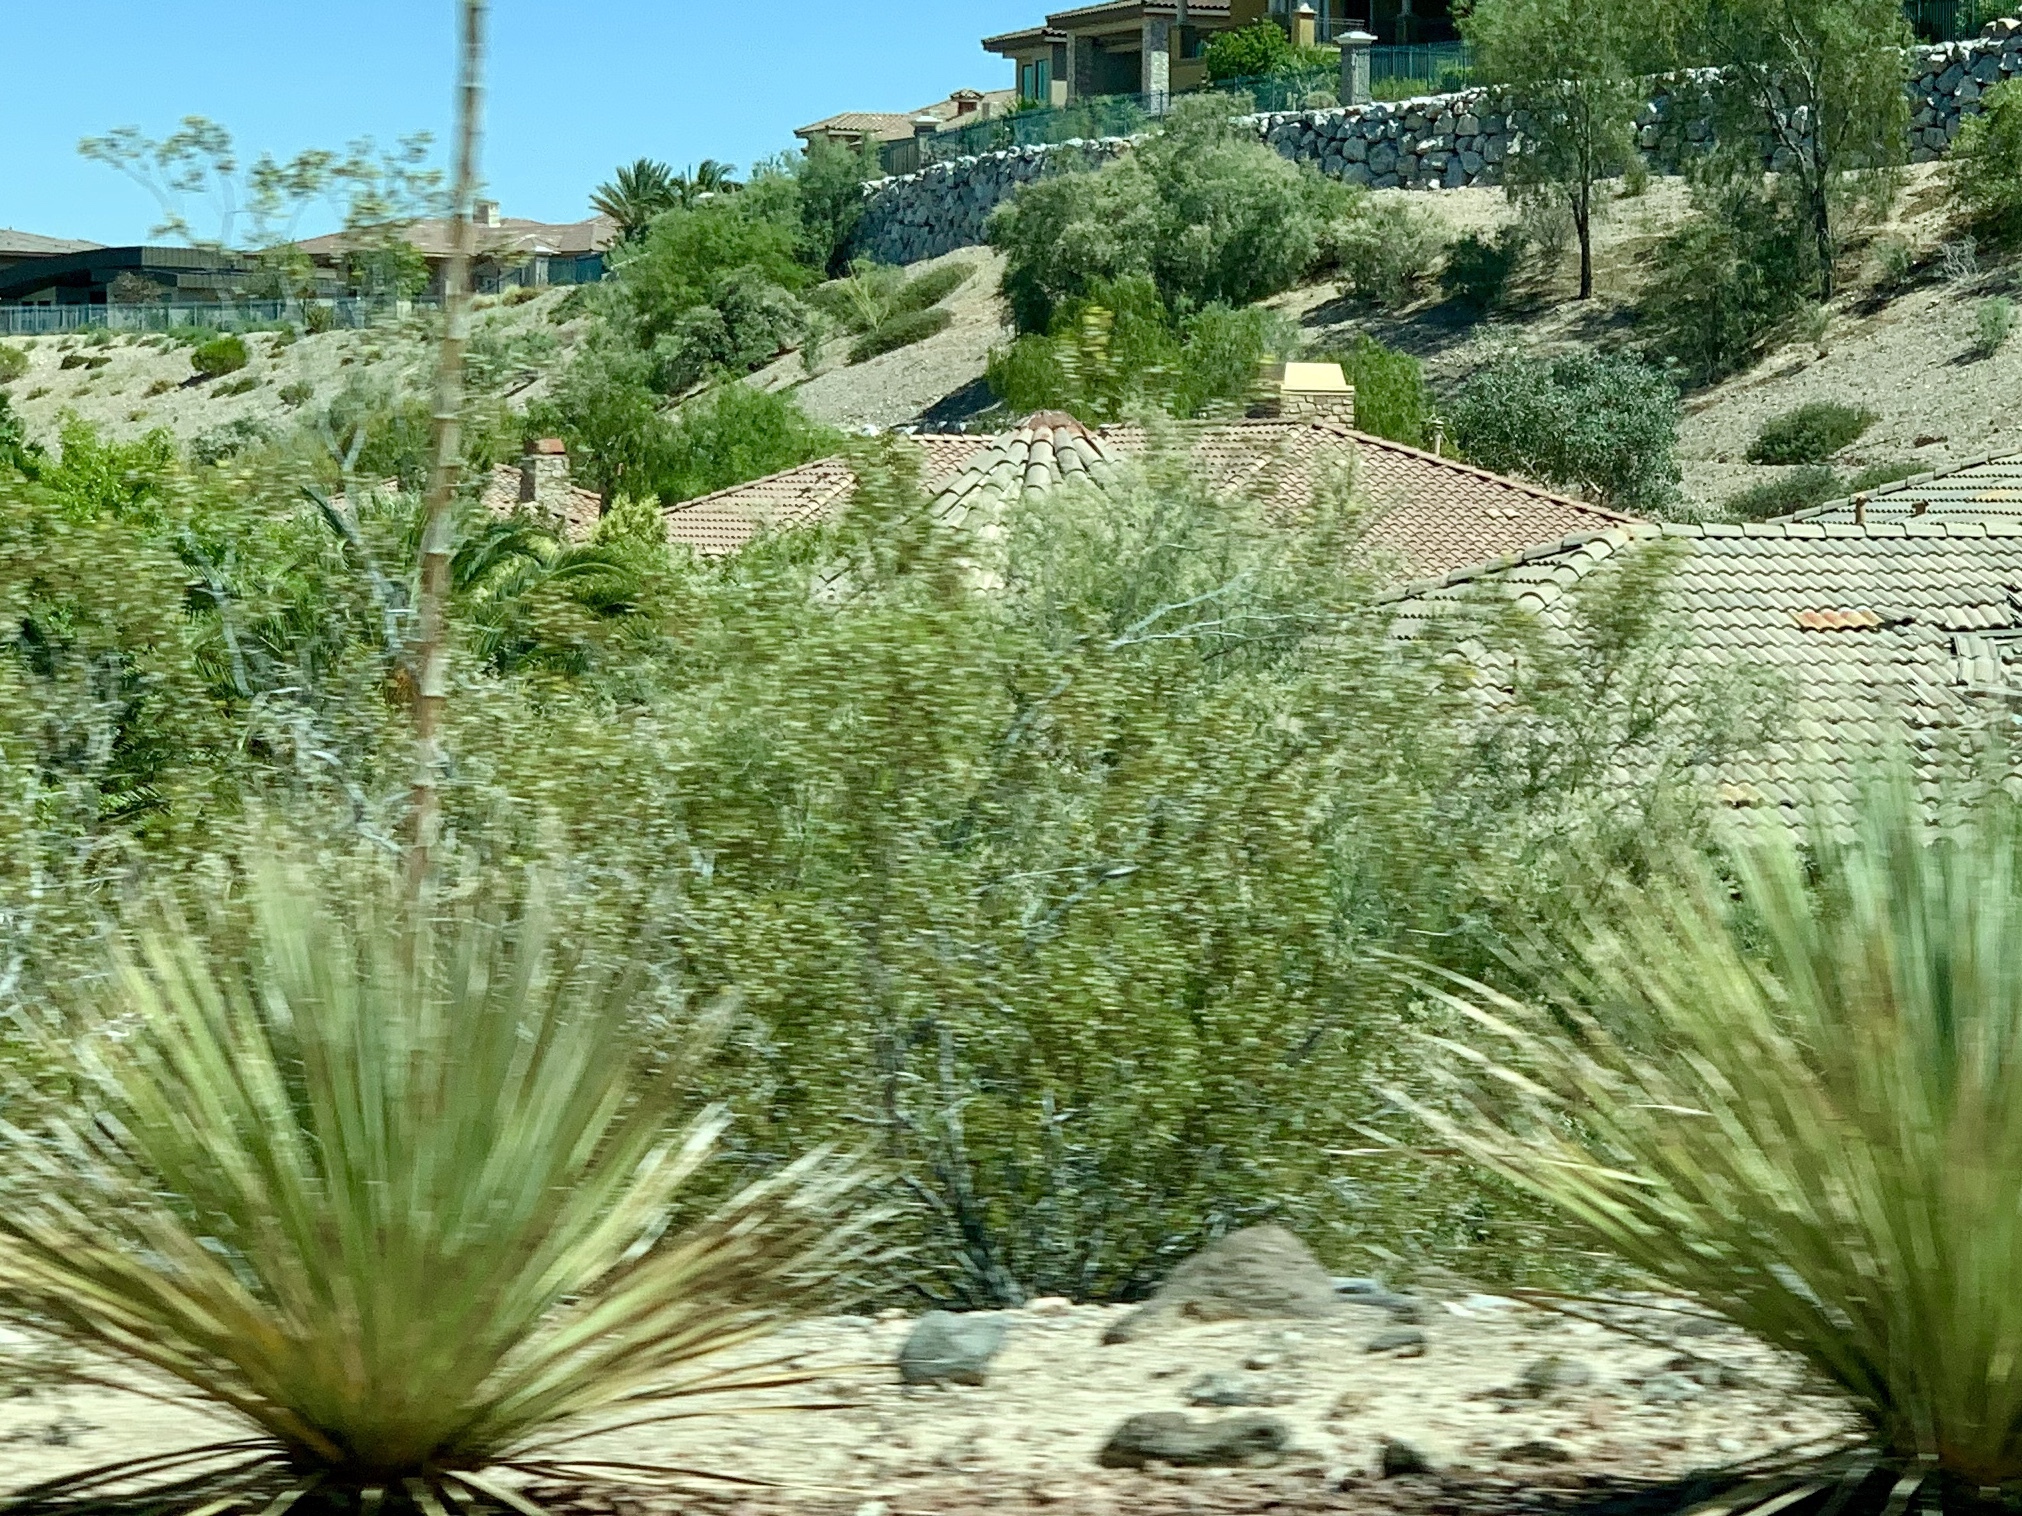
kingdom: Plantae
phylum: Tracheophyta
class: Magnoliopsida
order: Zygophyllales
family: Zygophyllaceae
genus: Larrea
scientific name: Larrea tridentata
